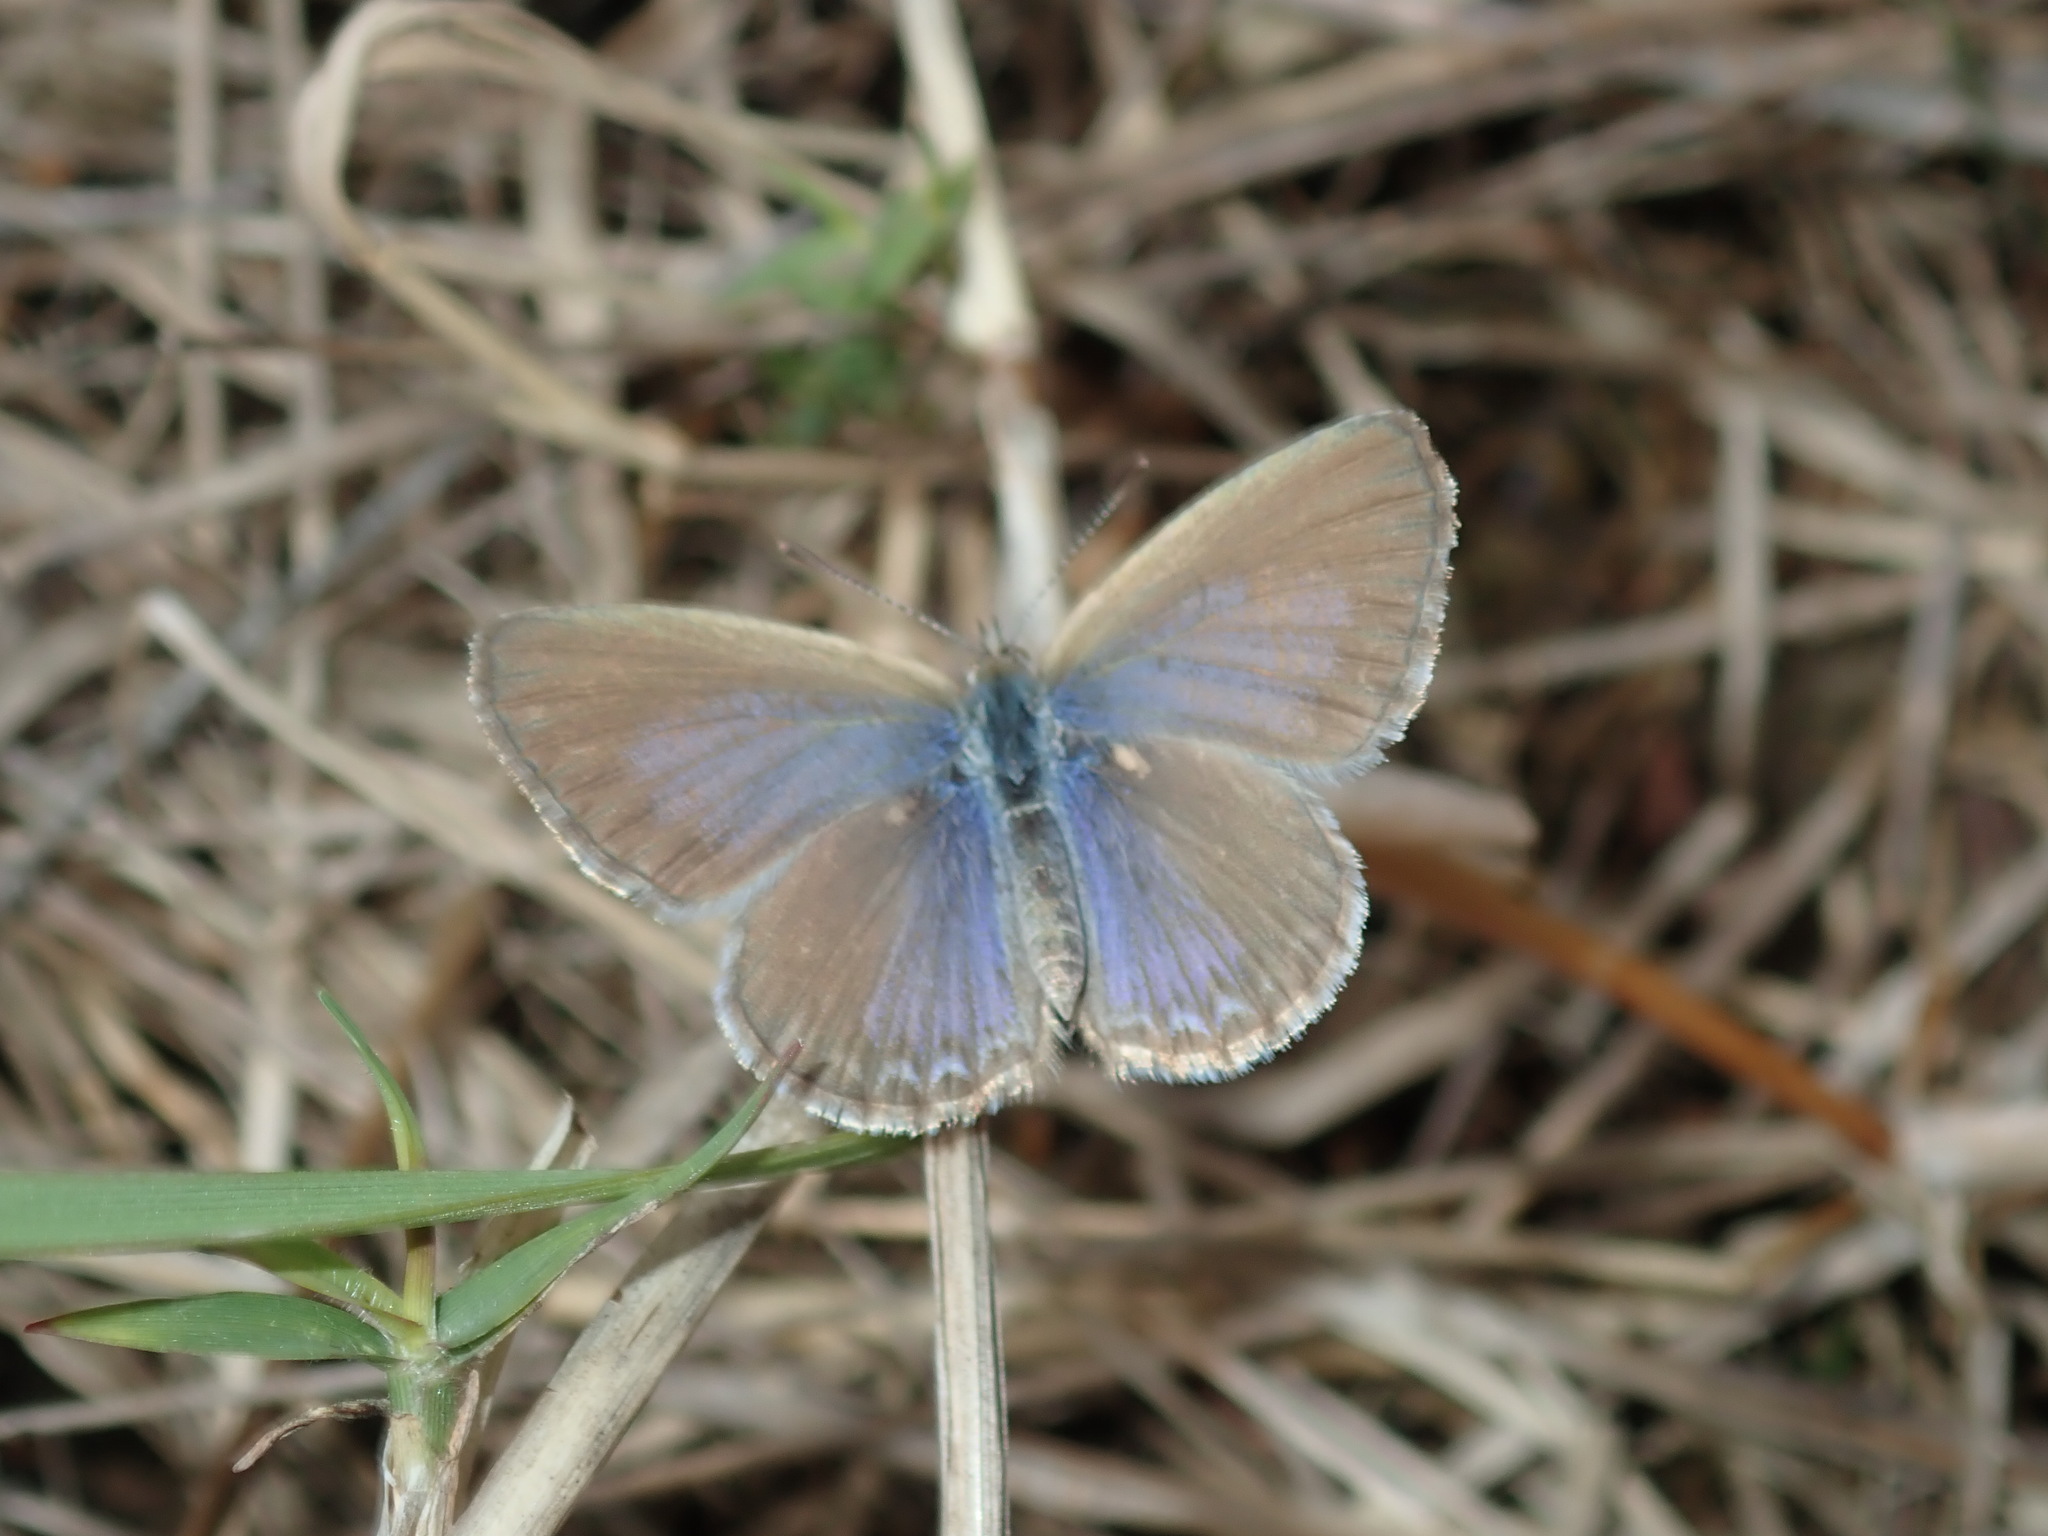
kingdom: Animalia
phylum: Arthropoda
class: Insecta
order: Lepidoptera
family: Lycaenidae
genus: Zizina
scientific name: Zizina labradus
